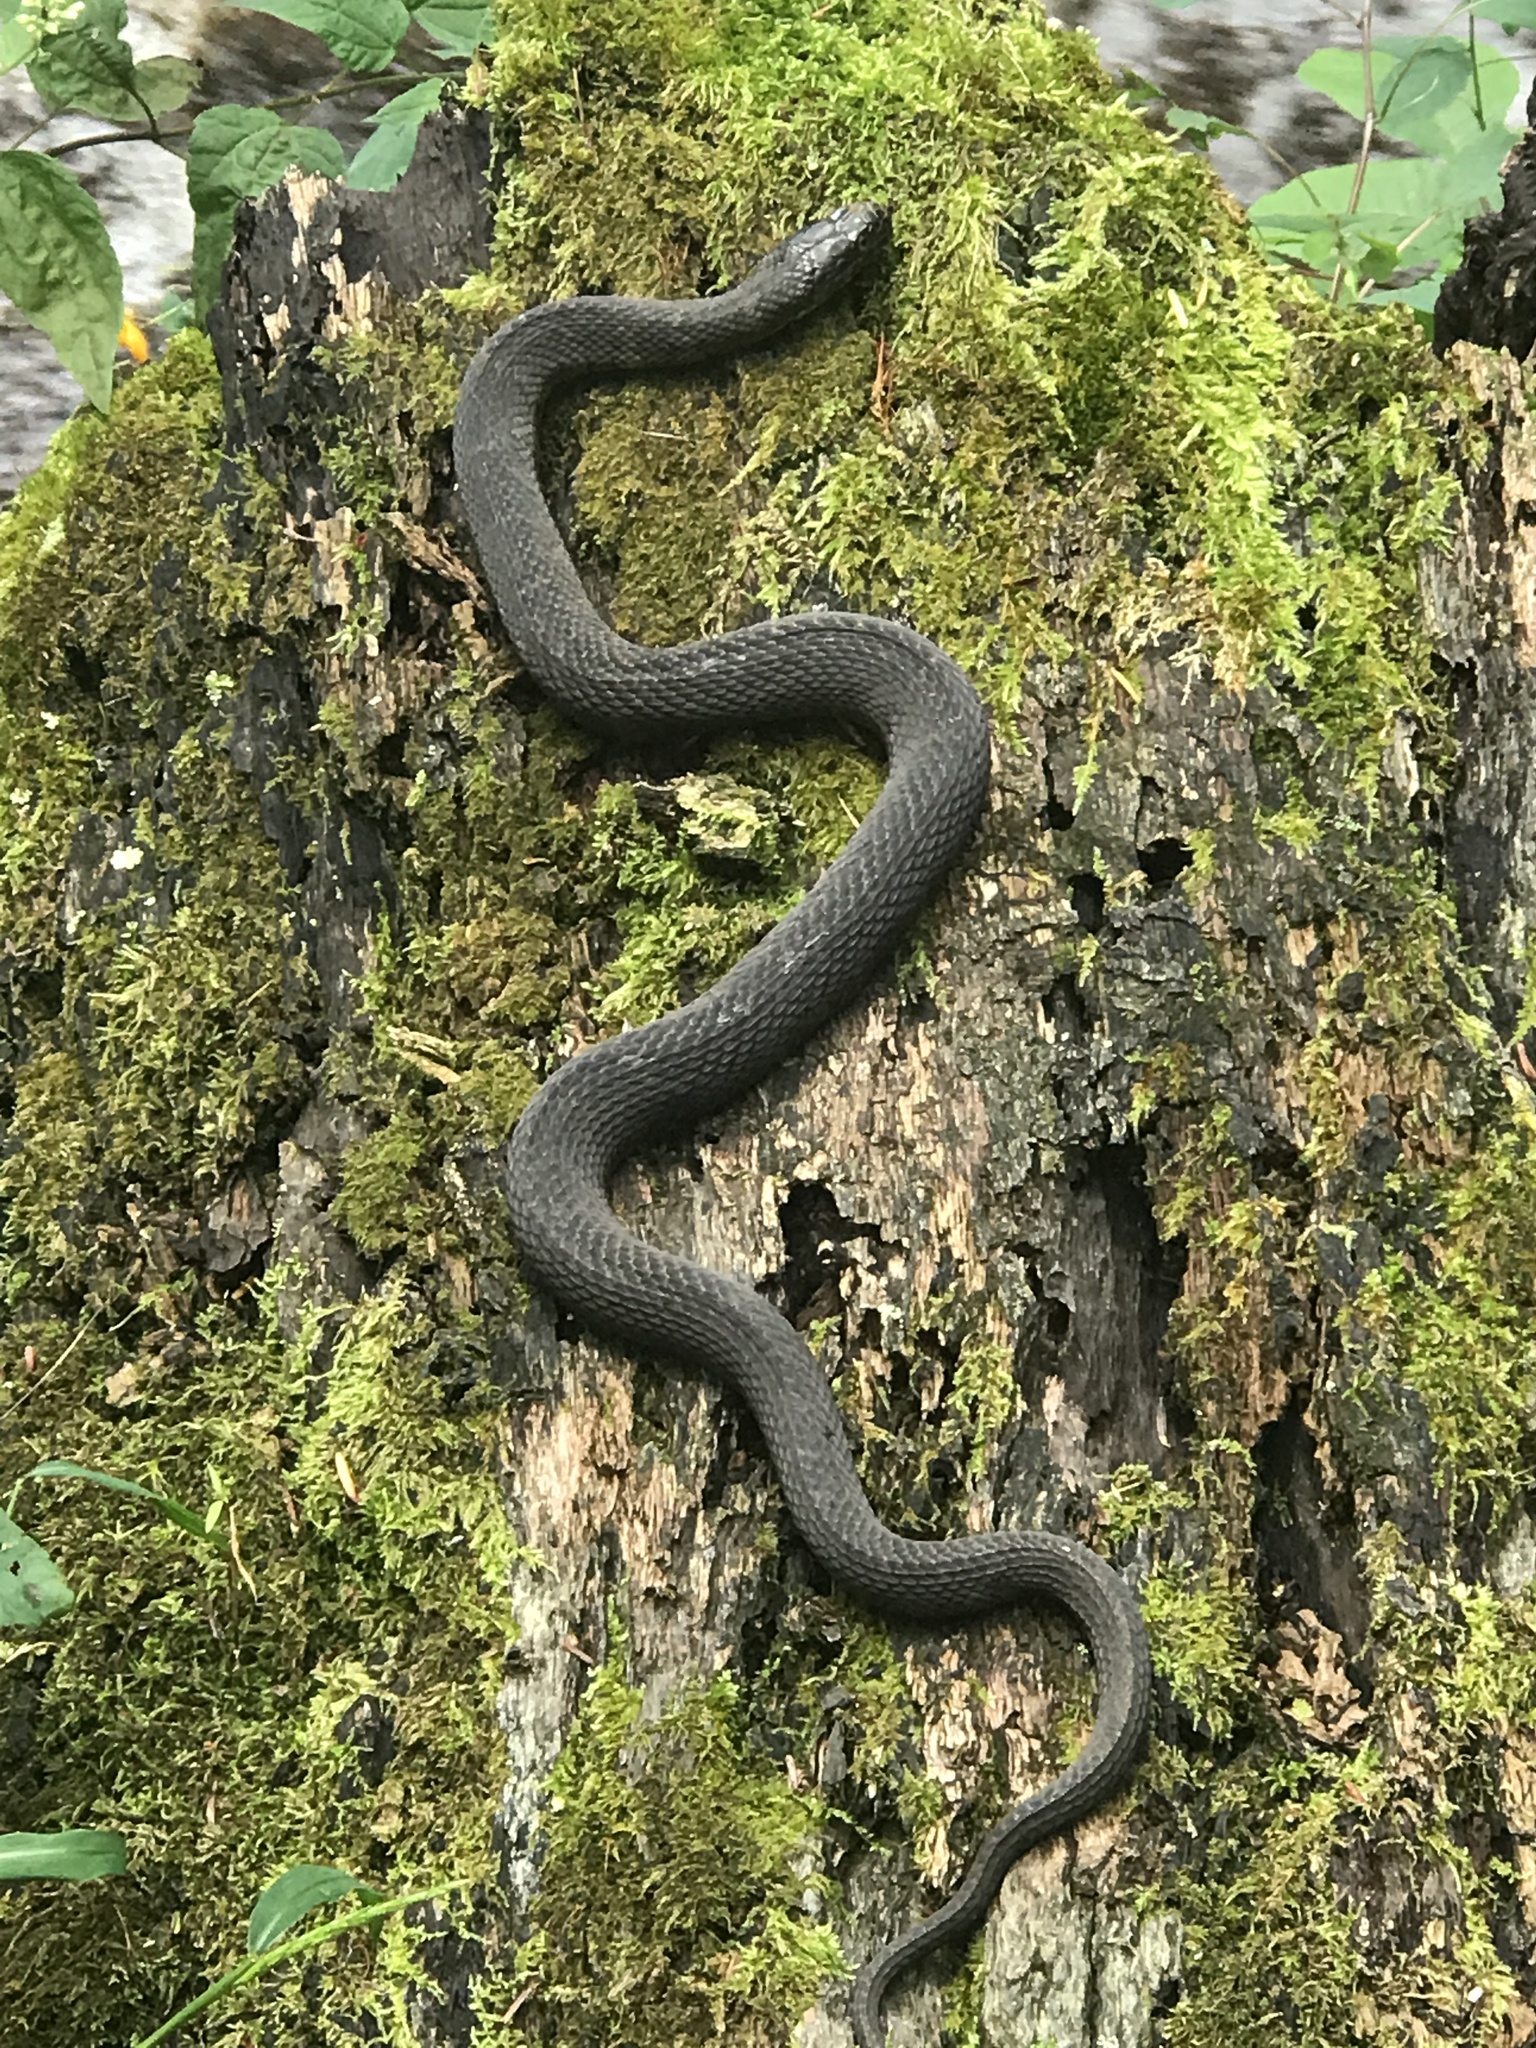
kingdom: Animalia
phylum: Chordata
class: Squamata
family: Colubridae
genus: Nerodia
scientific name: Nerodia sipedon
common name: Northern water snake
